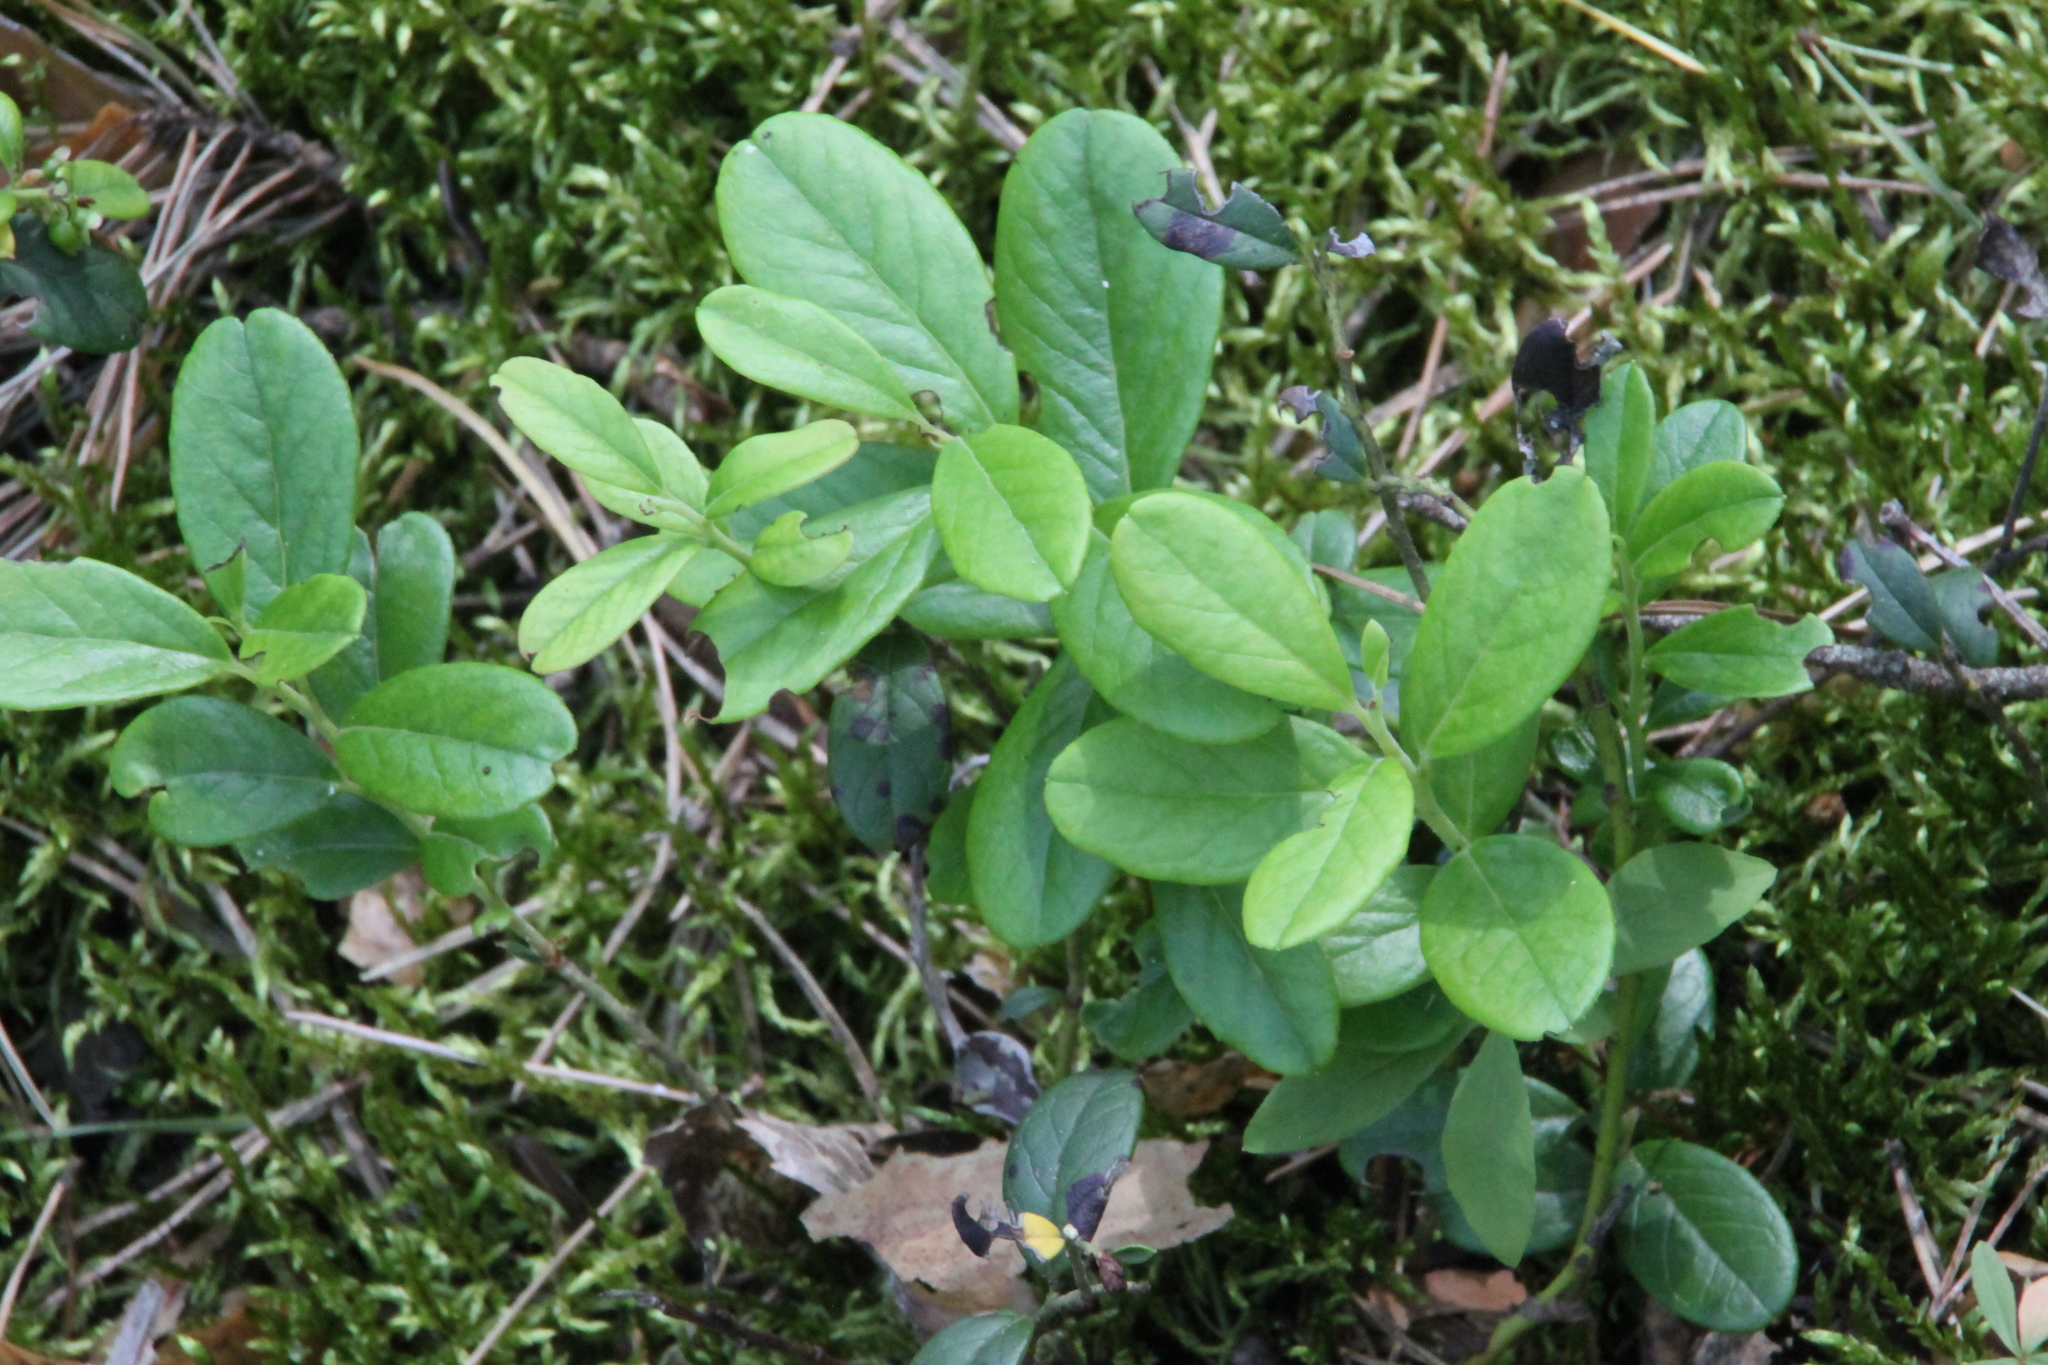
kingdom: Plantae
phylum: Tracheophyta
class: Magnoliopsida
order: Ericales
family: Ericaceae
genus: Vaccinium
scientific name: Vaccinium vitis-idaea
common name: Cowberry
